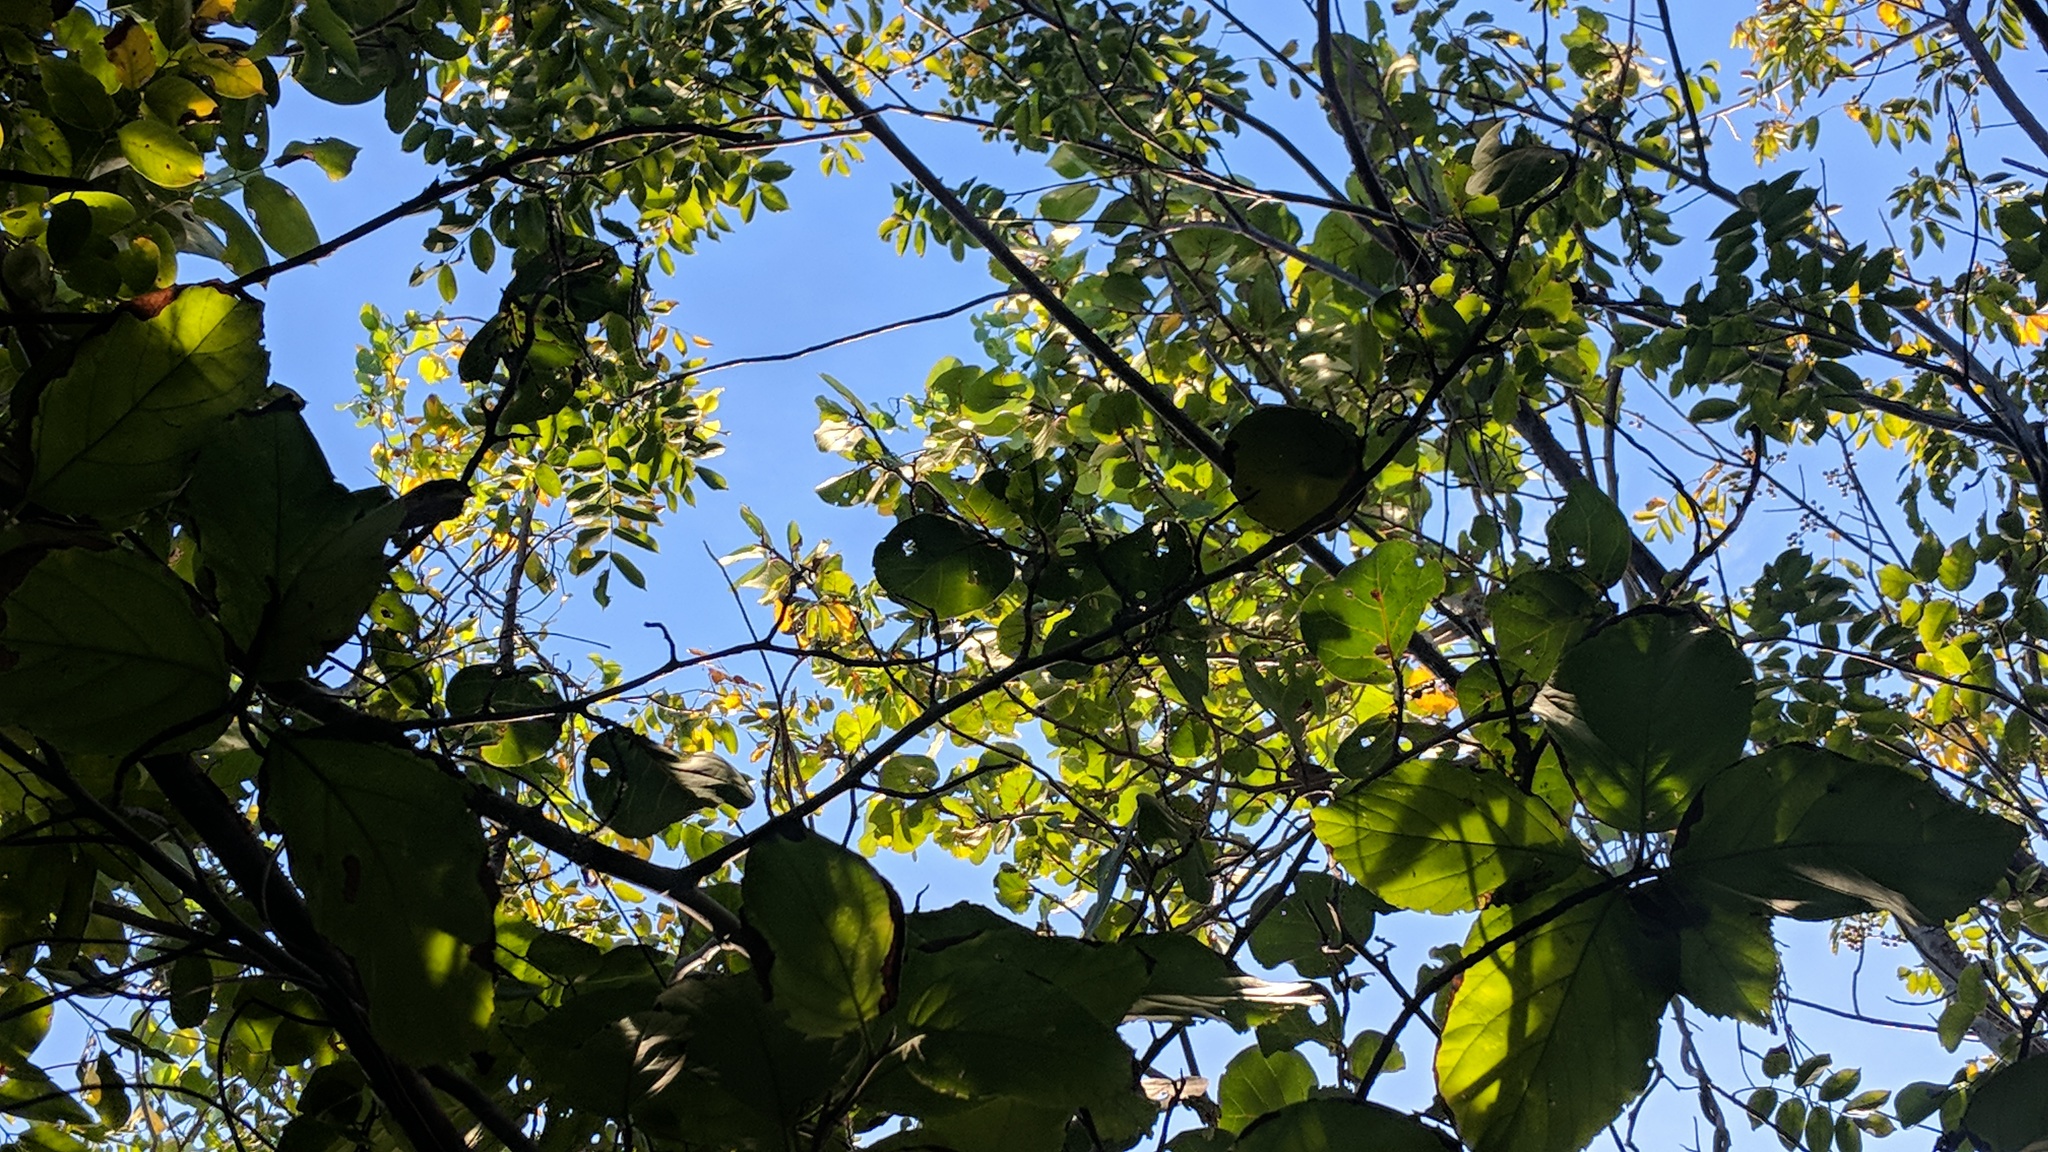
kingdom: Plantae
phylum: Tracheophyta
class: Magnoliopsida
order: Caryophyllales
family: Polygonaceae
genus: Coccoloba
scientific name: Coccoloba uvifera
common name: Seagrape
